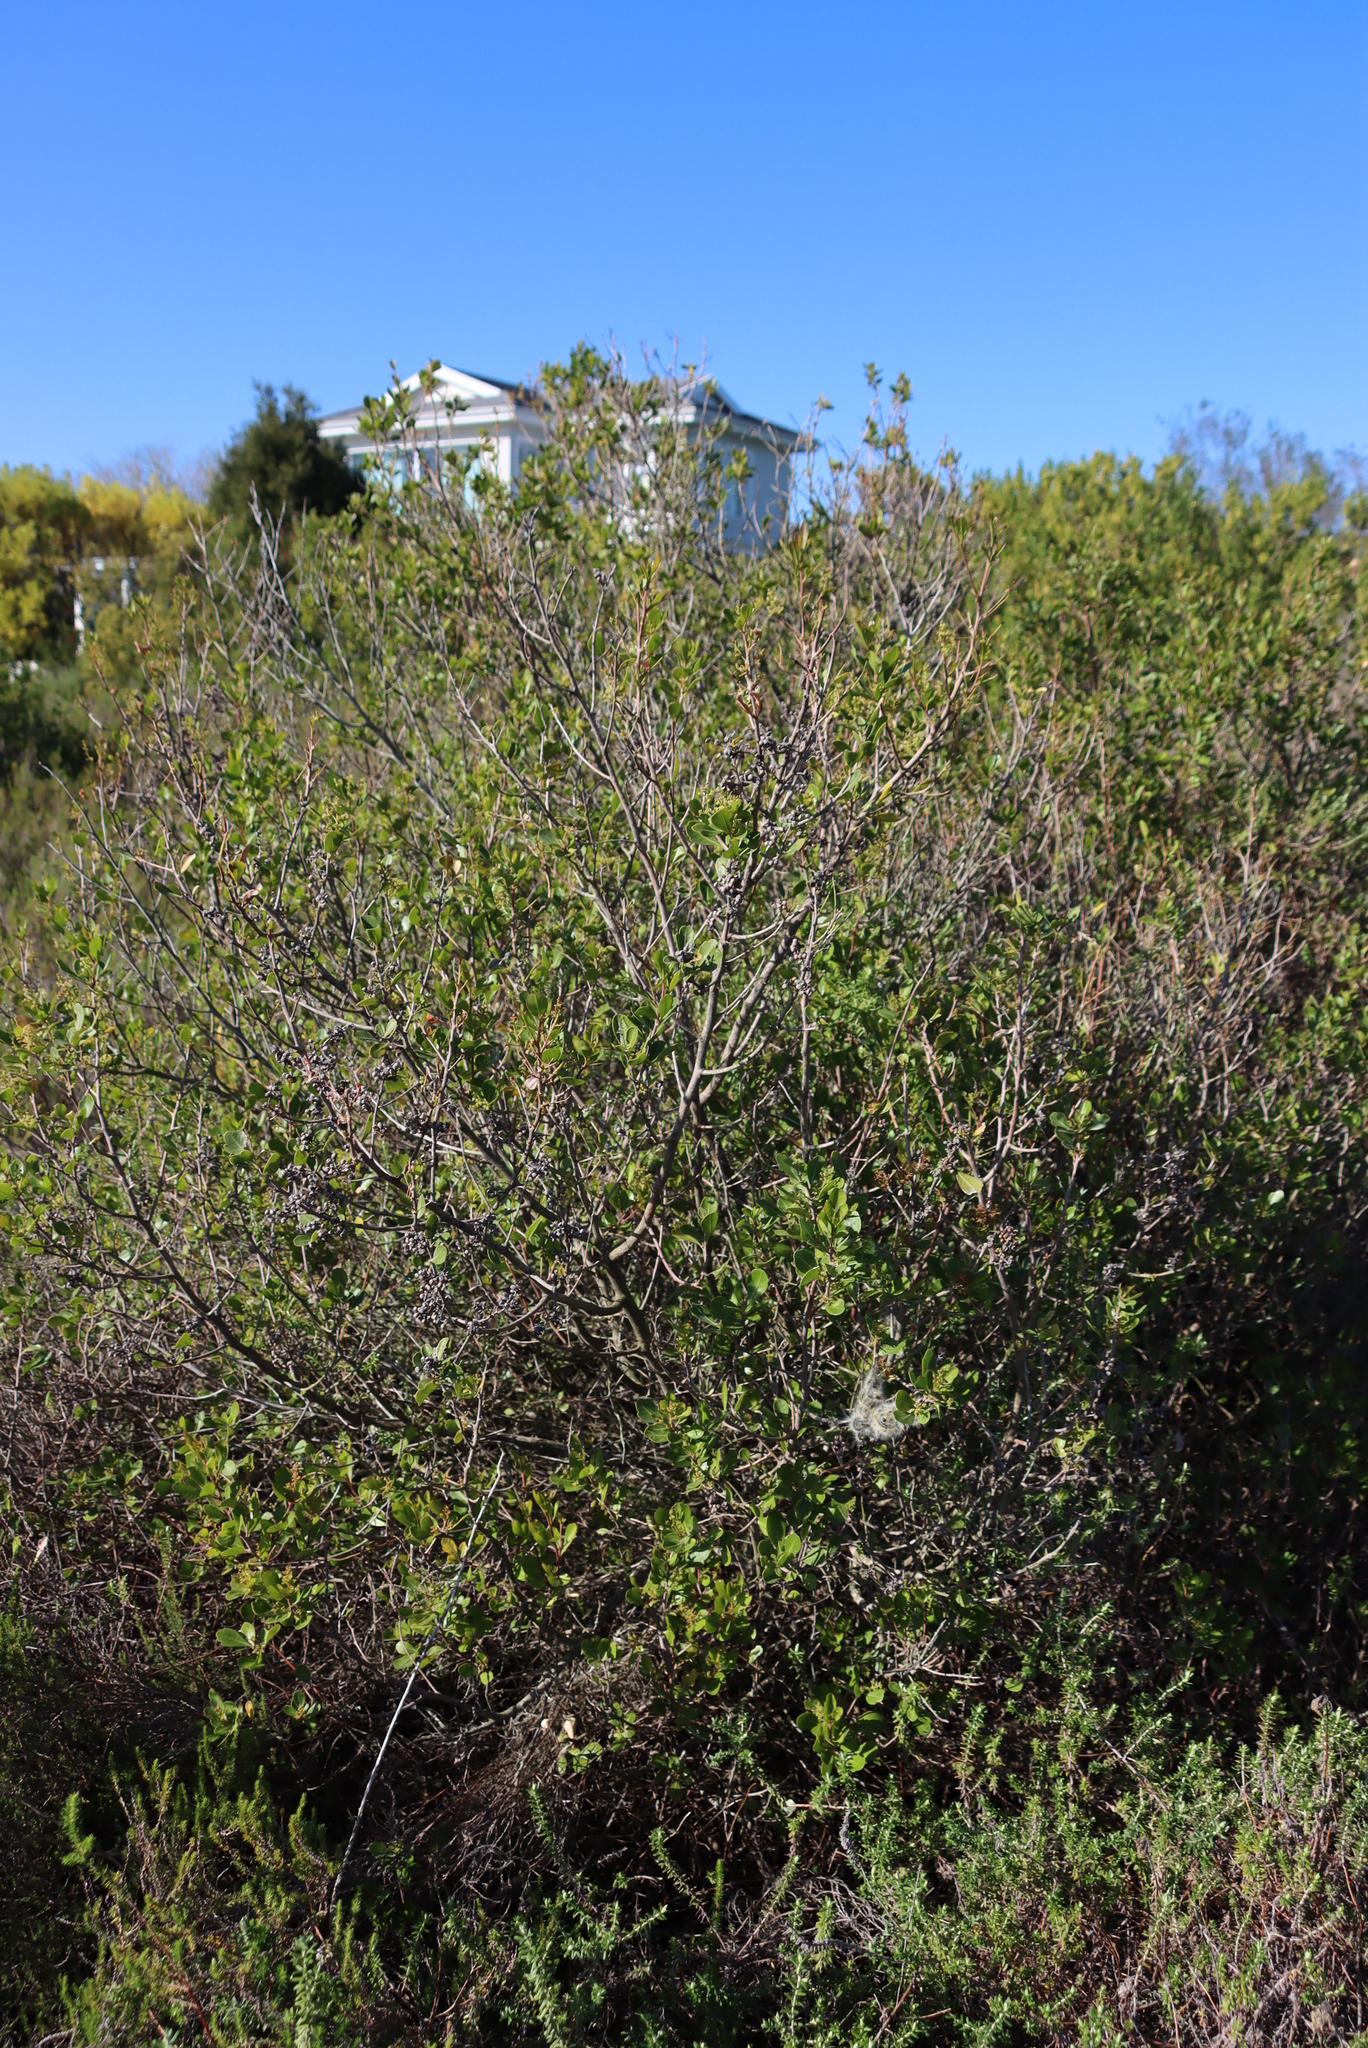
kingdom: Plantae
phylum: Tracheophyta
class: Magnoliopsida
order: Sapindales
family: Anacardiaceae
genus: Searsia
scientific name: Searsia lucida
